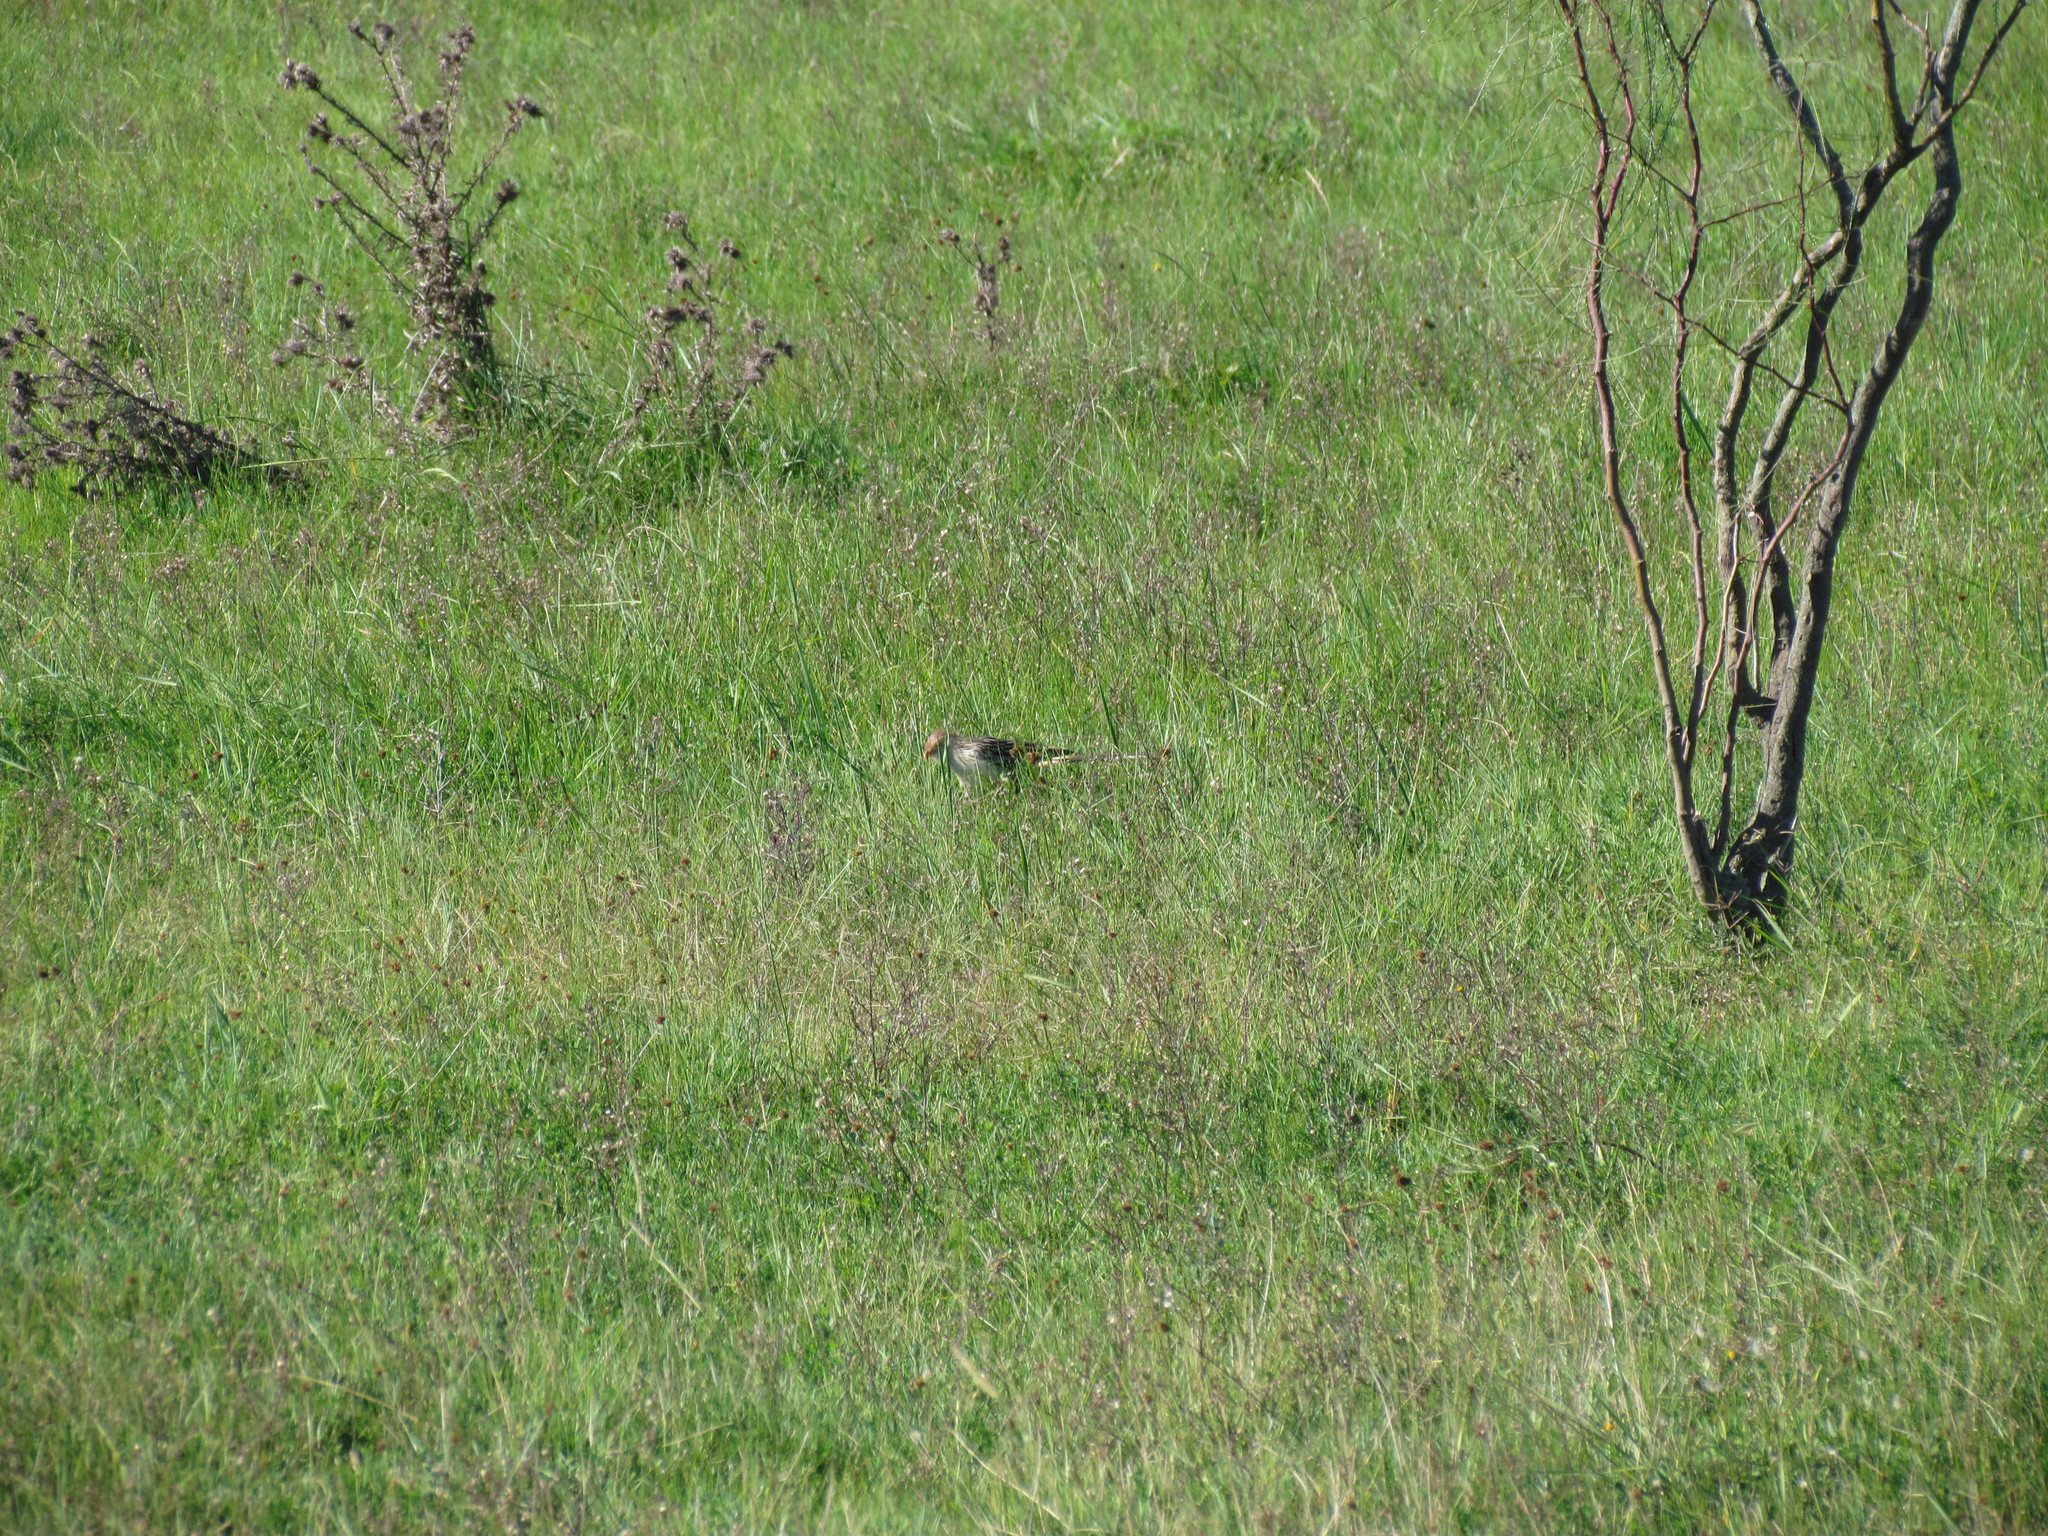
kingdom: Animalia
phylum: Chordata
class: Aves
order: Cuculiformes
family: Cuculidae
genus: Guira
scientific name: Guira guira
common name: Guira cuckoo
